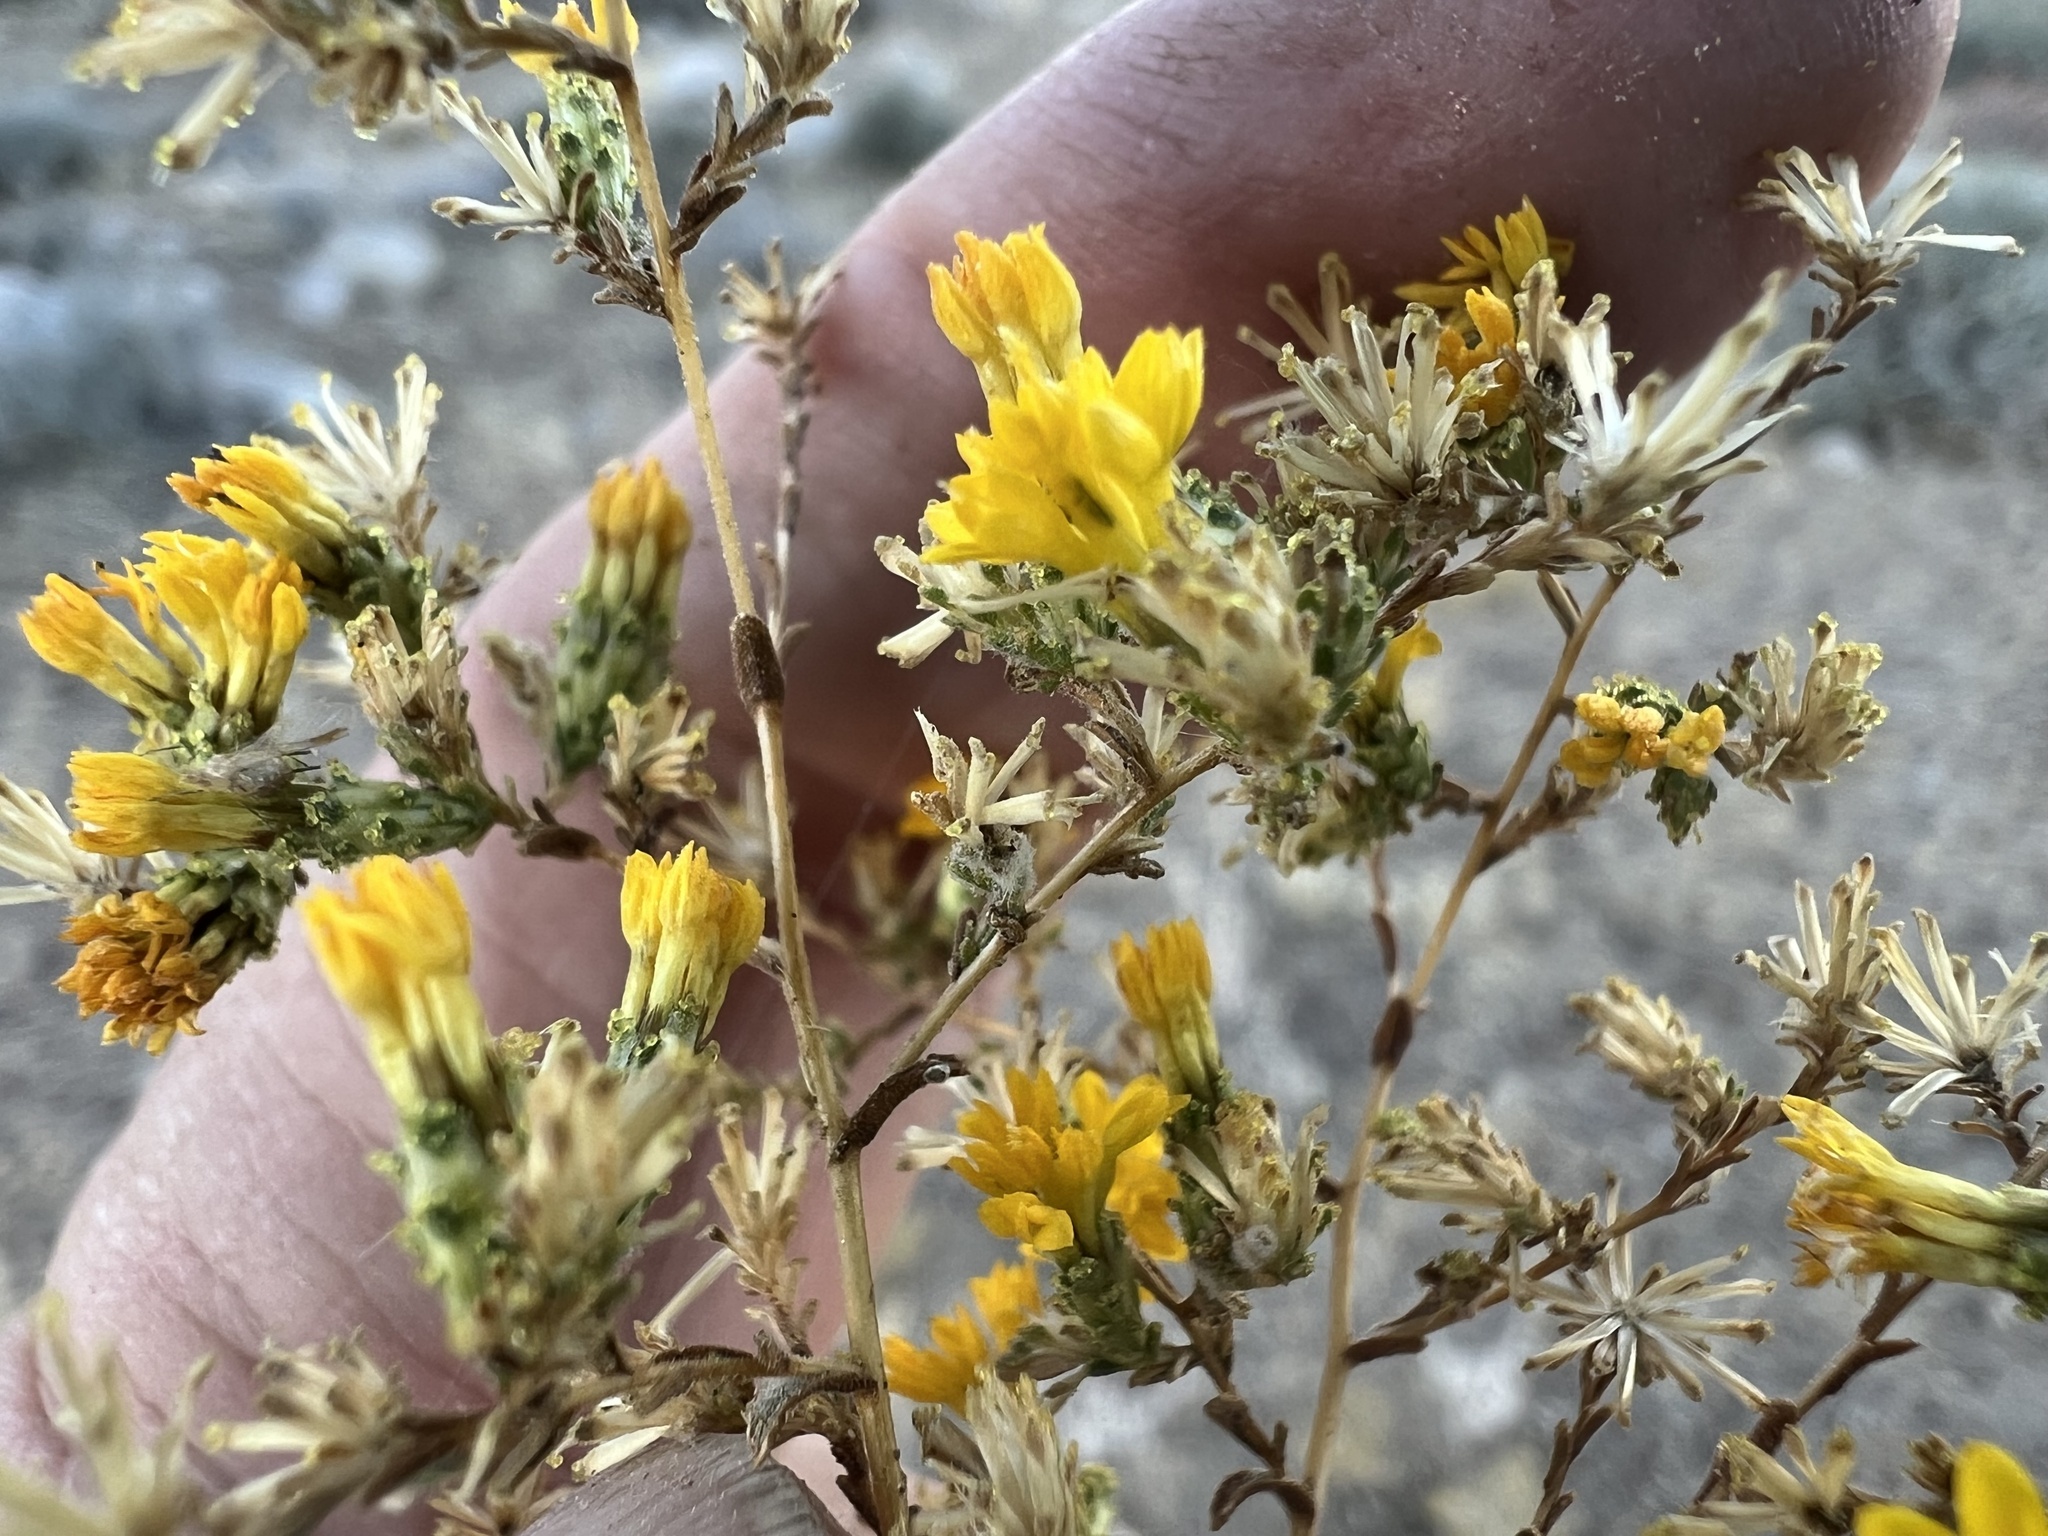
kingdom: Plantae
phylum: Tracheophyta
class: Magnoliopsida
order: Asterales
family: Asteraceae
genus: Lessingia
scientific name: Lessingia glandulifera
